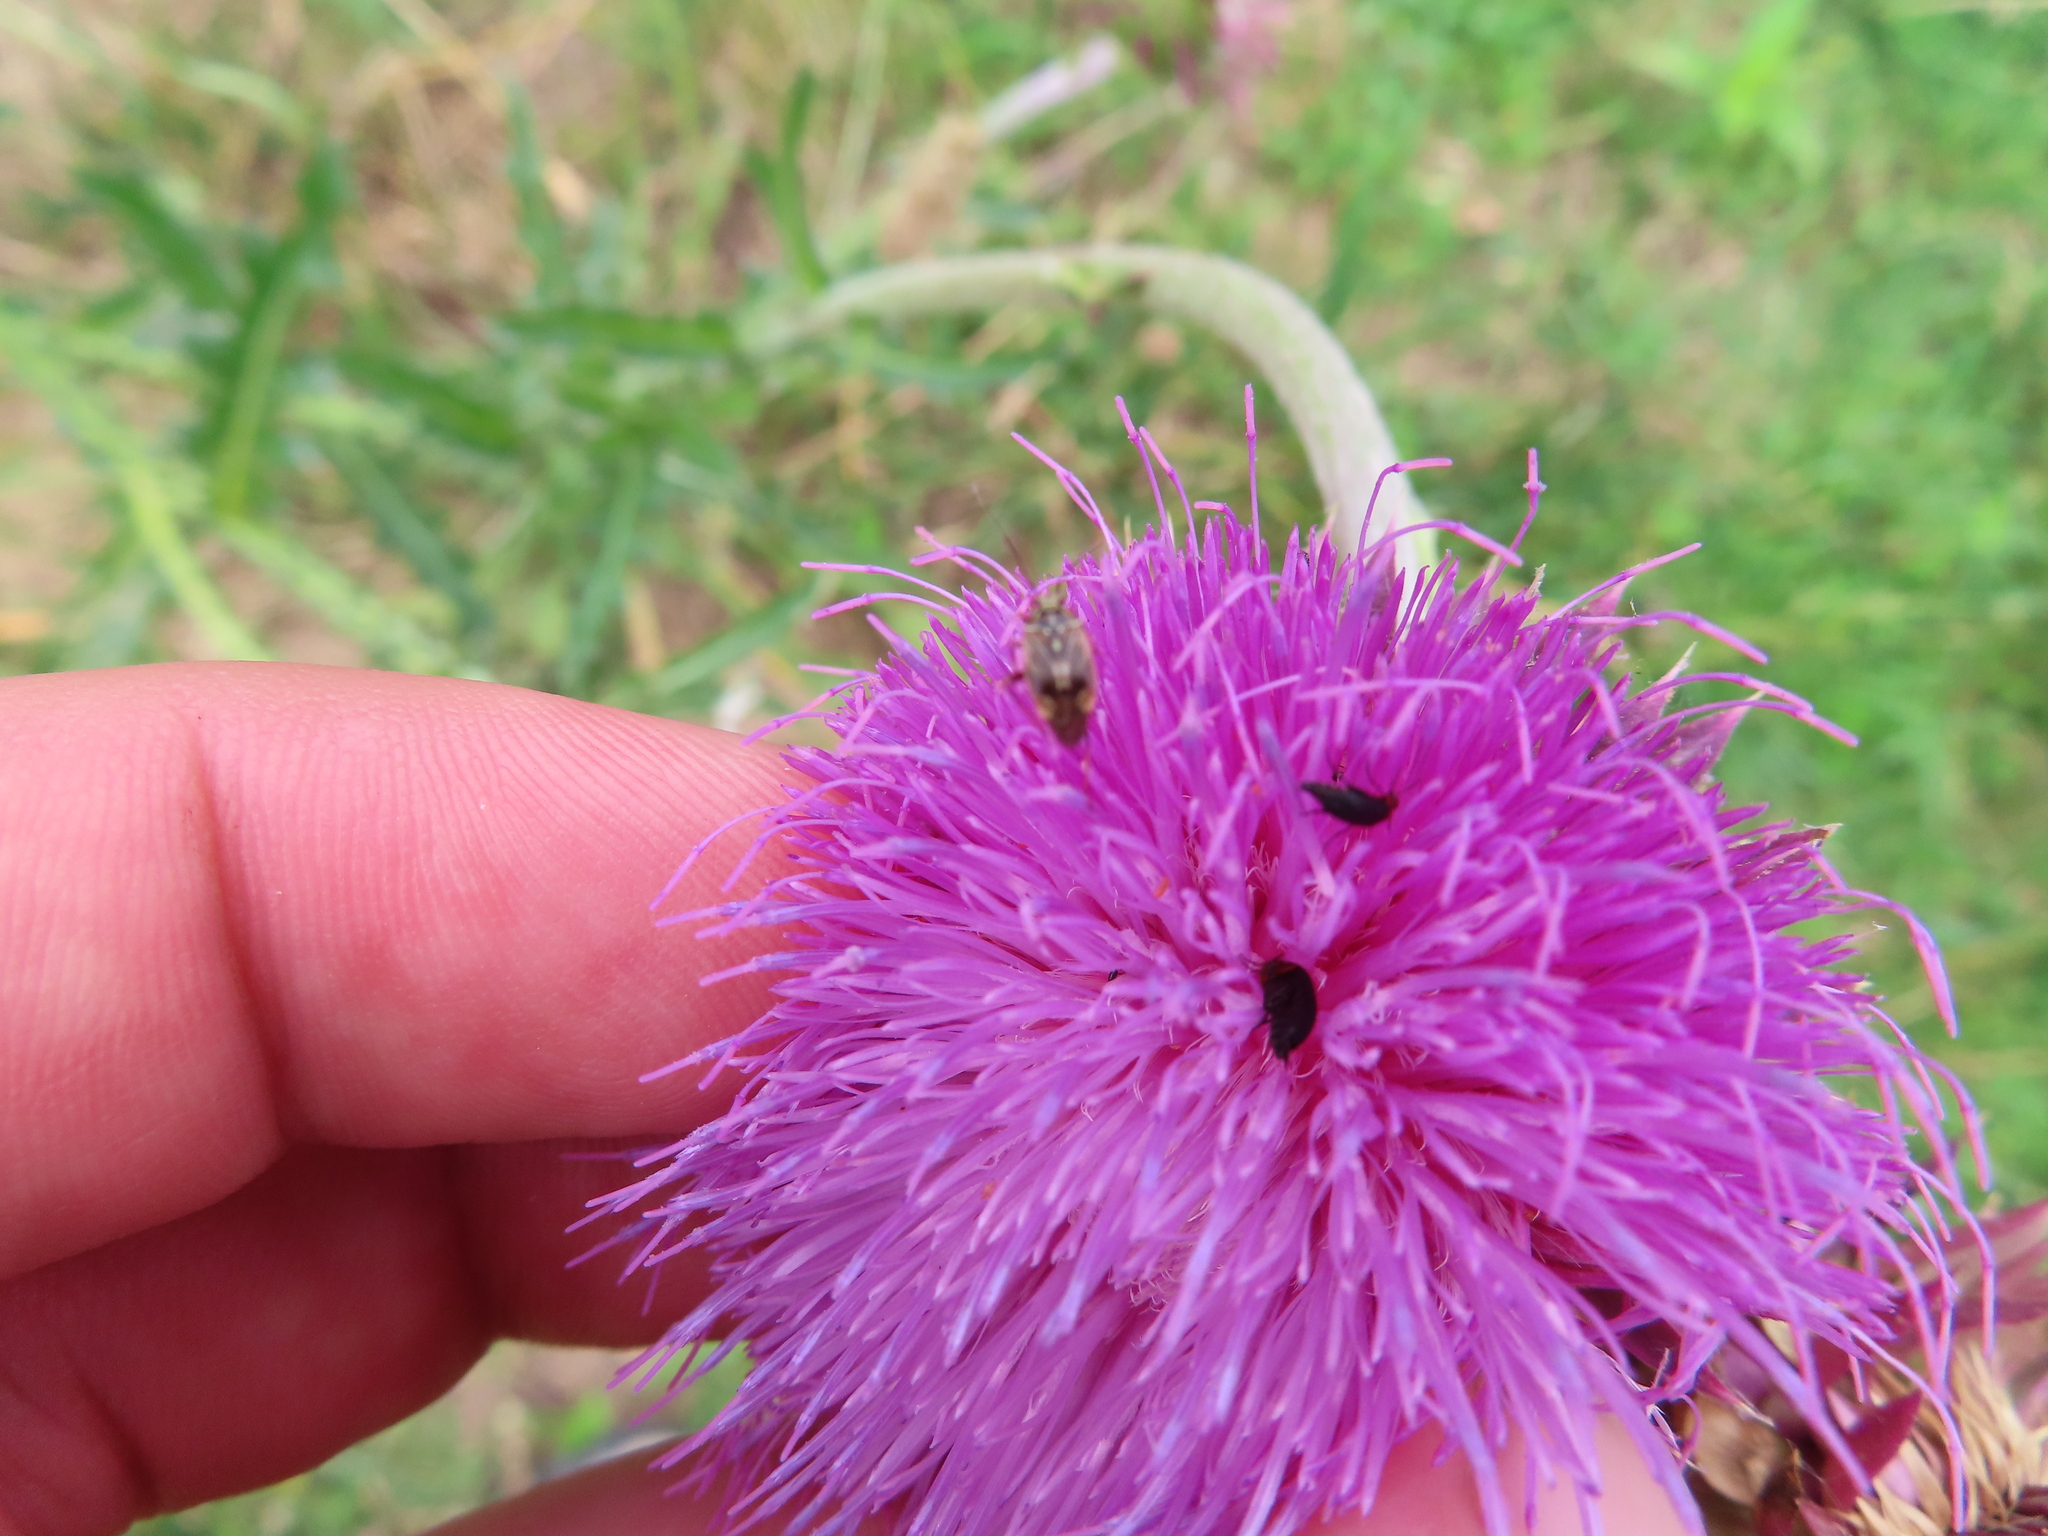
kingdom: Animalia
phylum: Arthropoda
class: Insecta
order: Hemiptera
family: Miridae
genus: Lygus
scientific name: Lygus lineolaris
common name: North american tarnished plant bug
